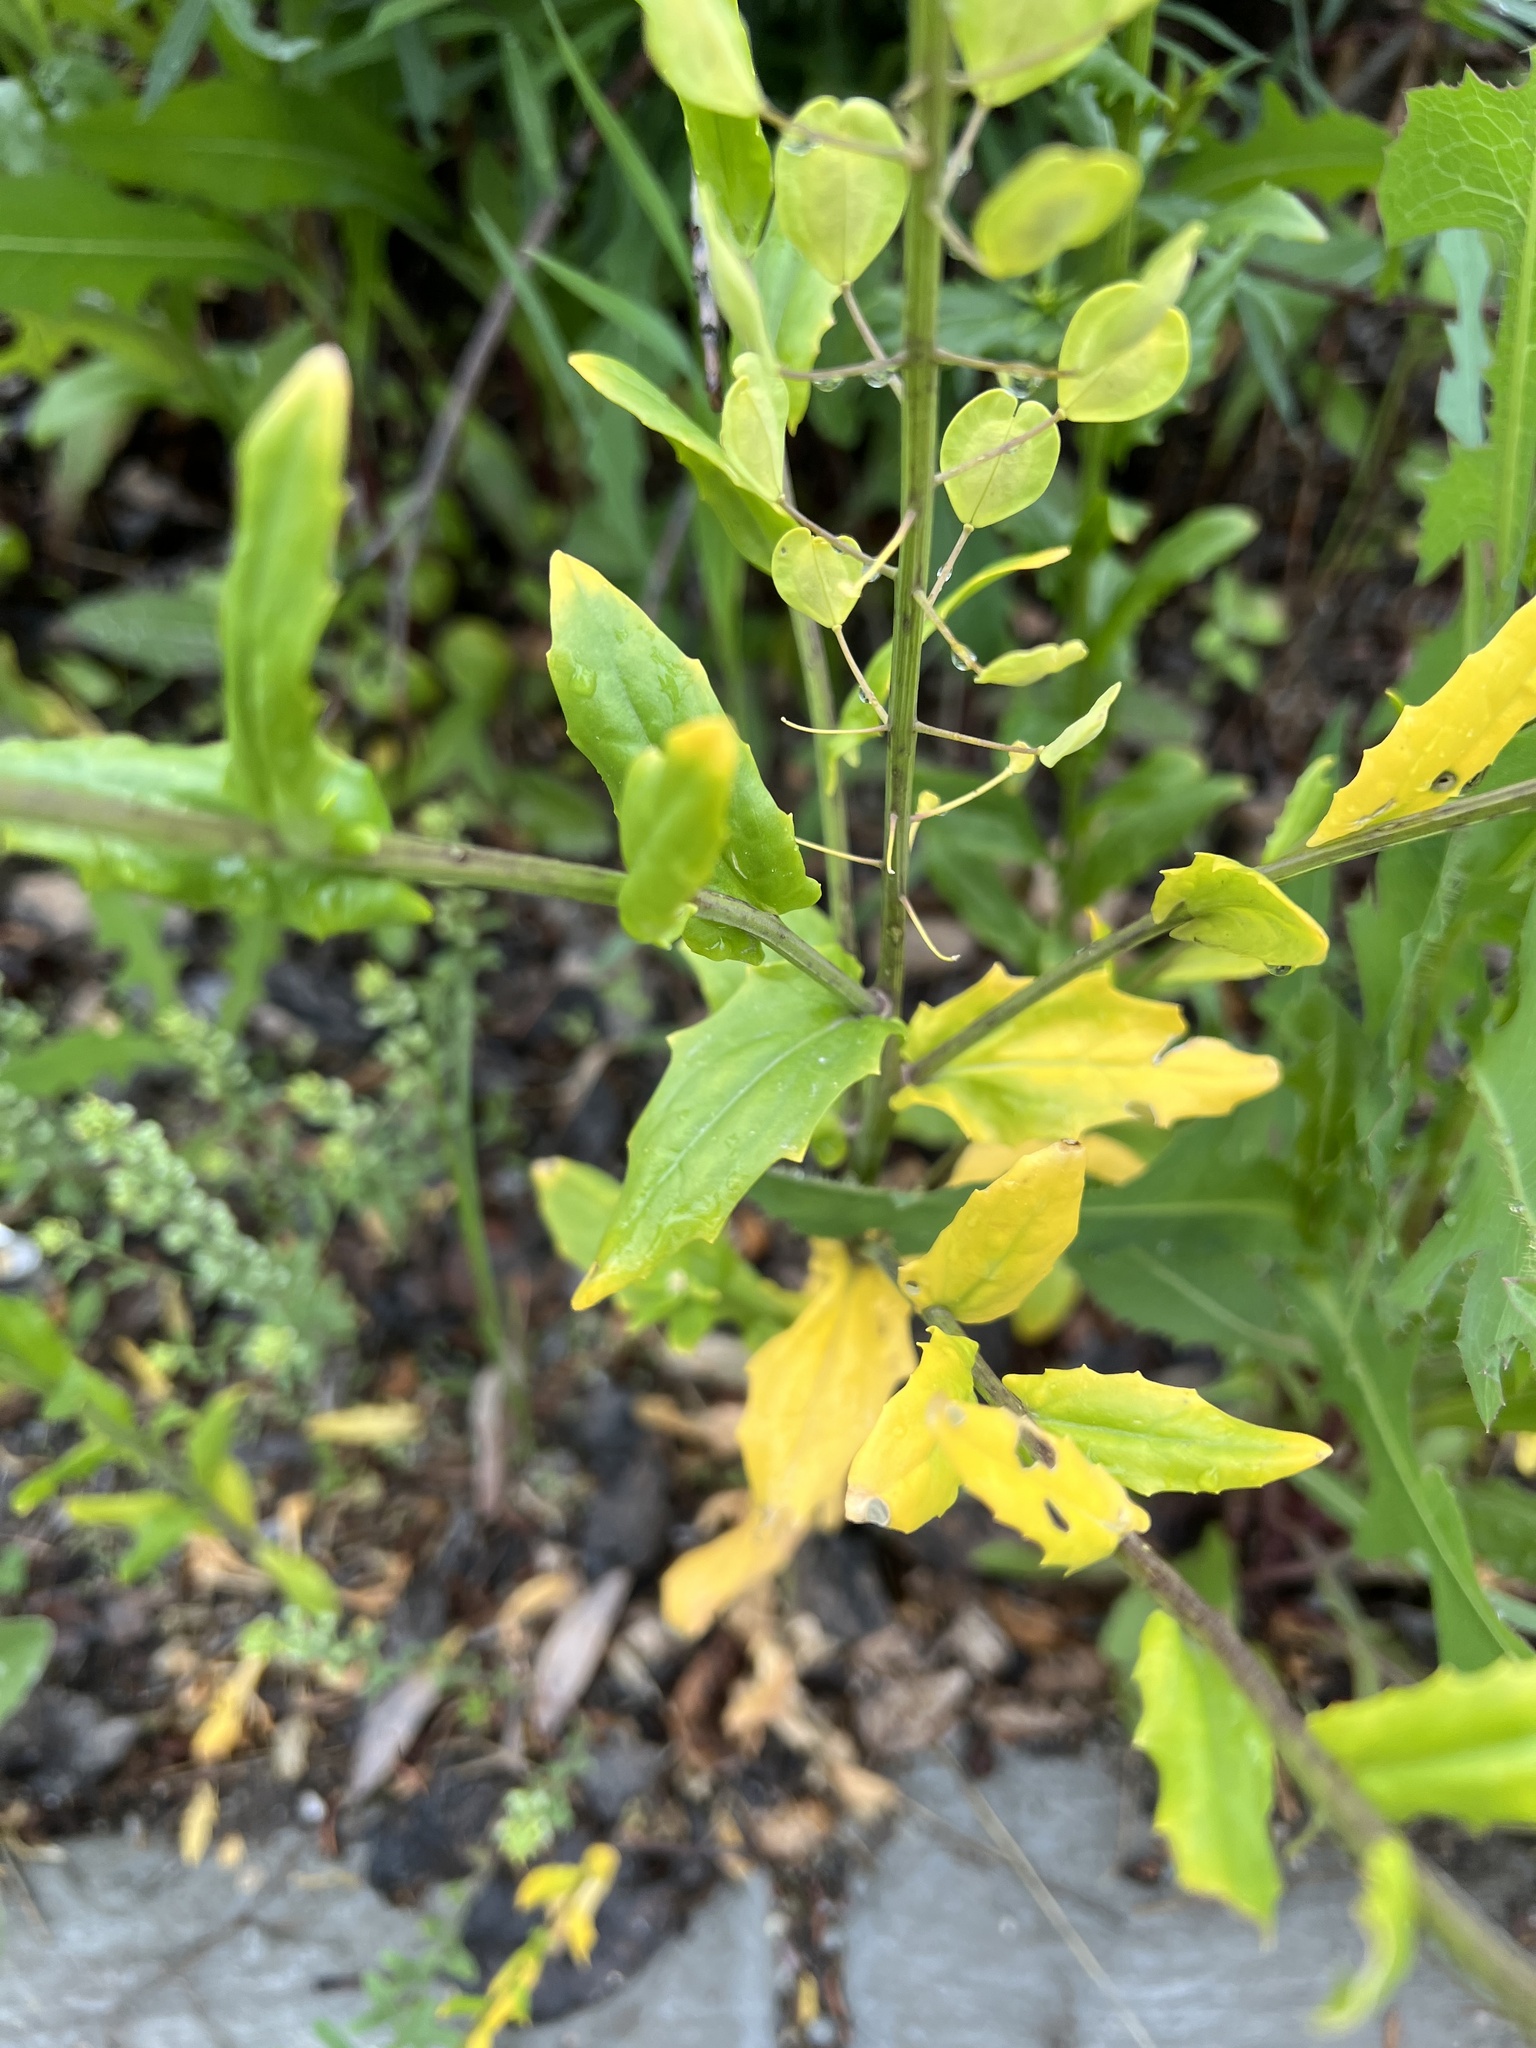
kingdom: Plantae
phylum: Tracheophyta
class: Magnoliopsida
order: Brassicales
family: Brassicaceae
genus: Thlaspi
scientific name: Thlaspi arvense
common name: Field pennycress
